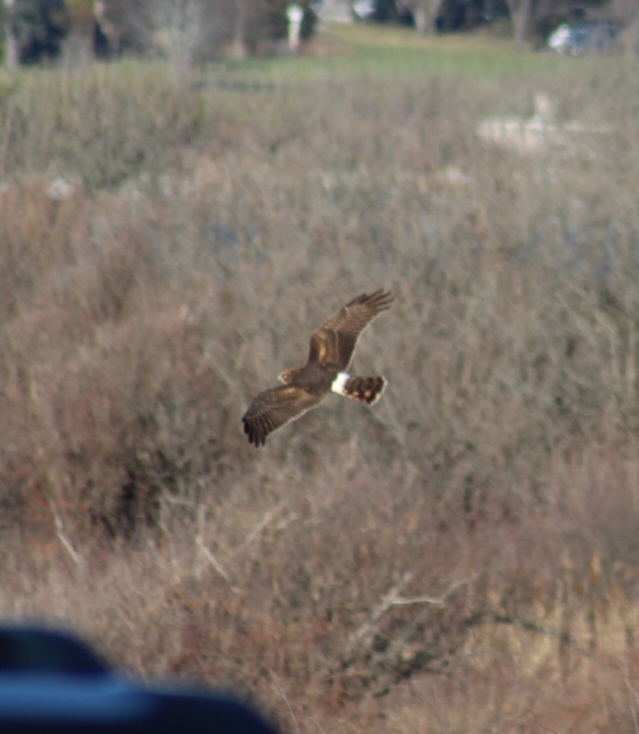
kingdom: Animalia
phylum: Chordata
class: Aves
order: Accipitriformes
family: Accipitridae
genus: Circus
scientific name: Circus cyaneus
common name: Hen harrier
